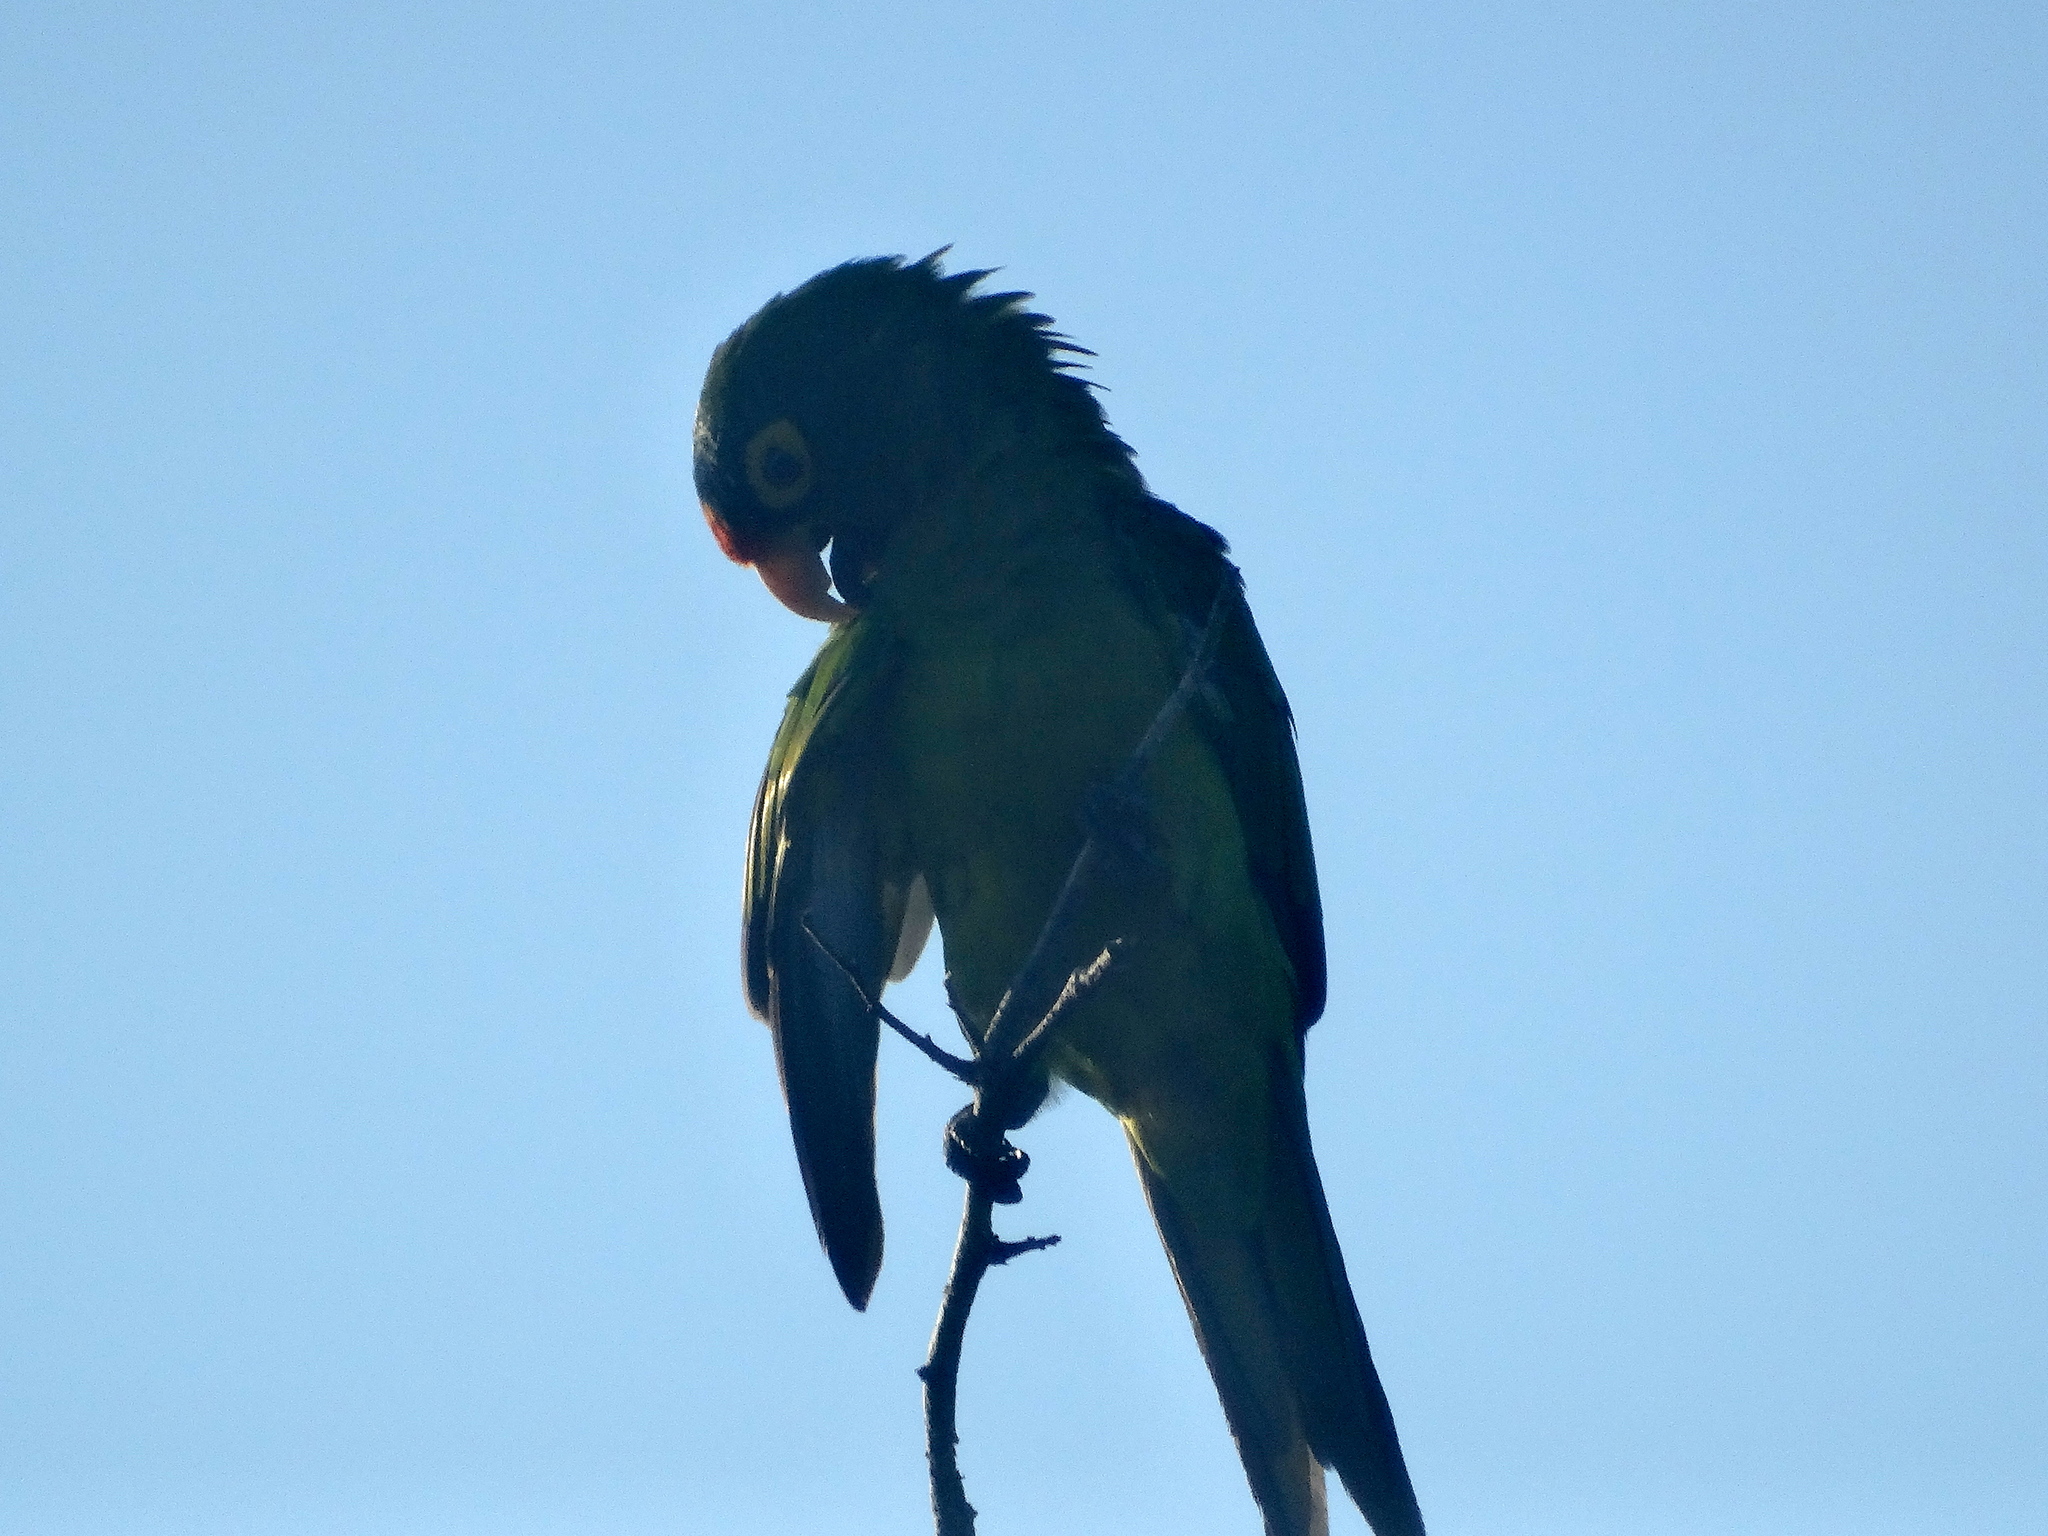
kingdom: Animalia
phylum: Chordata
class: Aves
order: Psittaciformes
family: Psittacidae
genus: Aratinga
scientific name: Aratinga canicularis
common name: Orange-fronted parakeet
